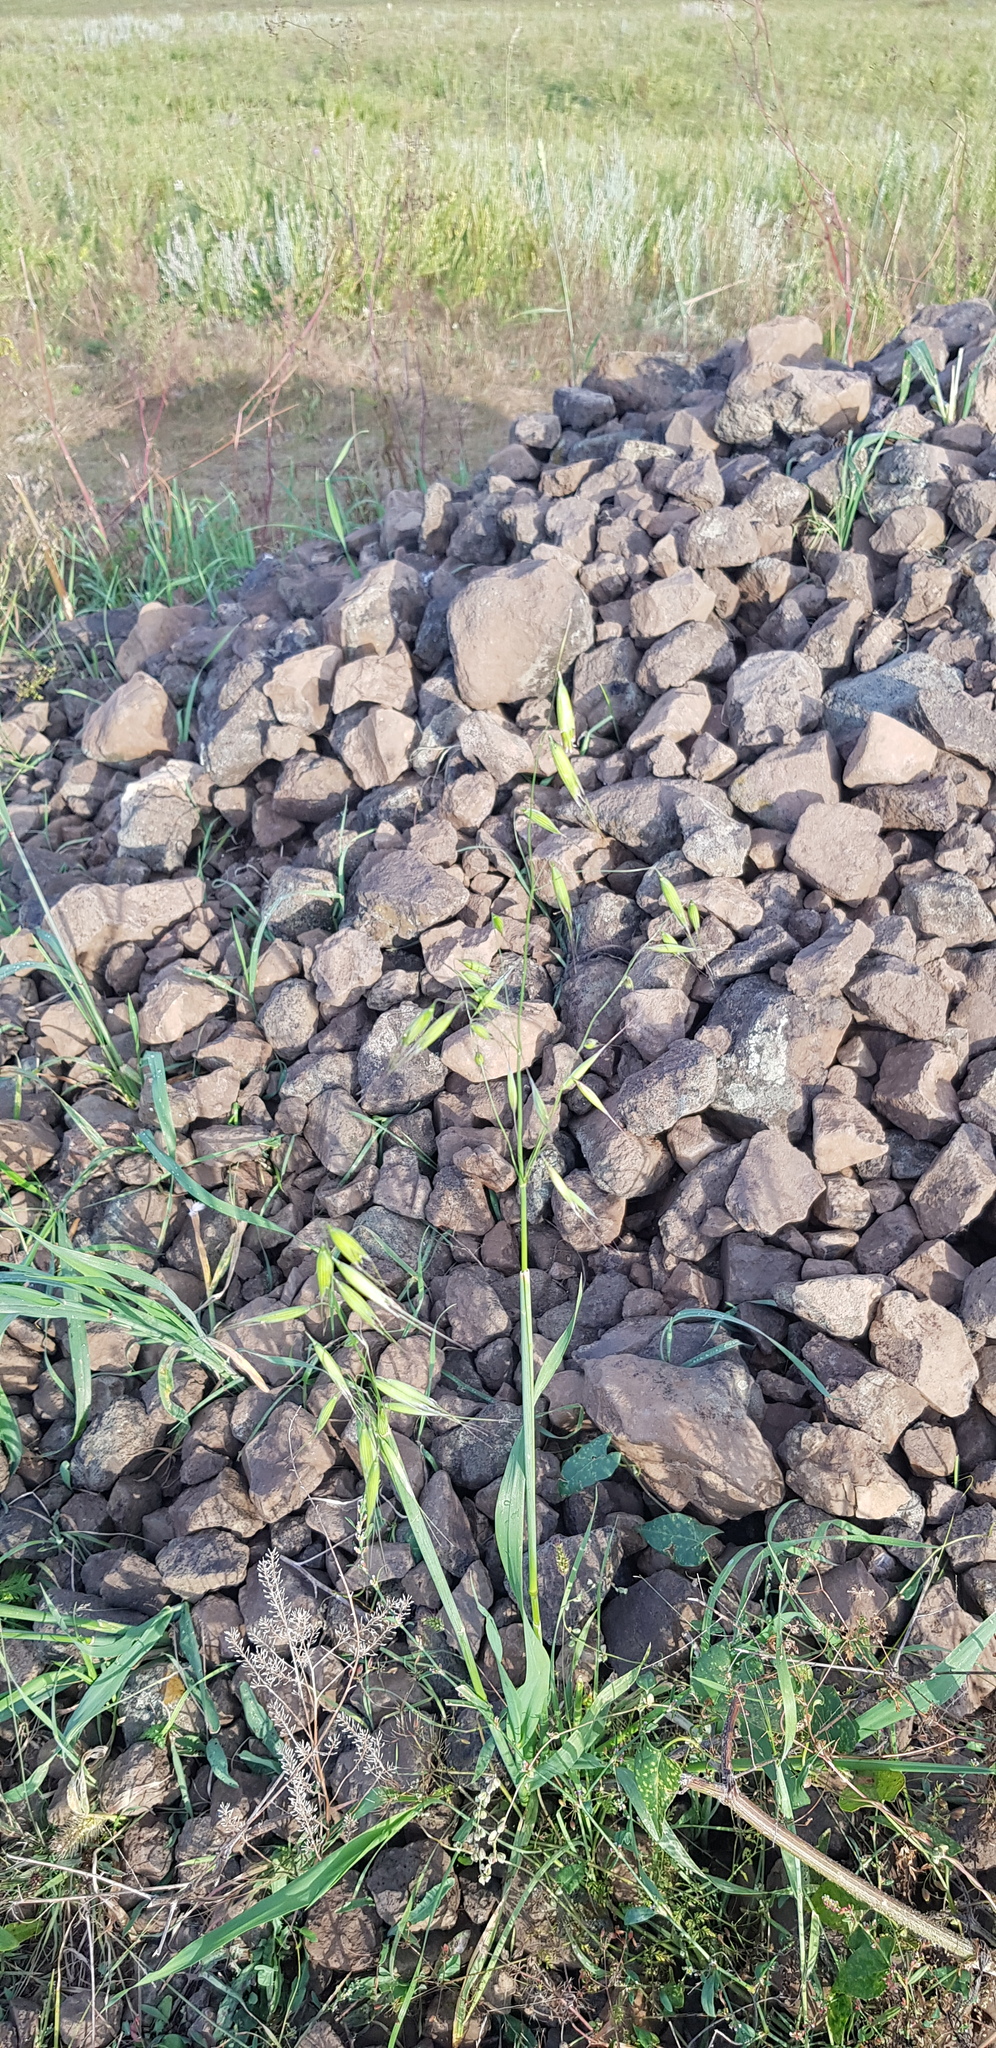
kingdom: Plantae
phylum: Tracheophyta
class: Liliopsida
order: Poales
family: Poaceae
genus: Avena
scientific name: Avena fatua
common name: Wild oat
